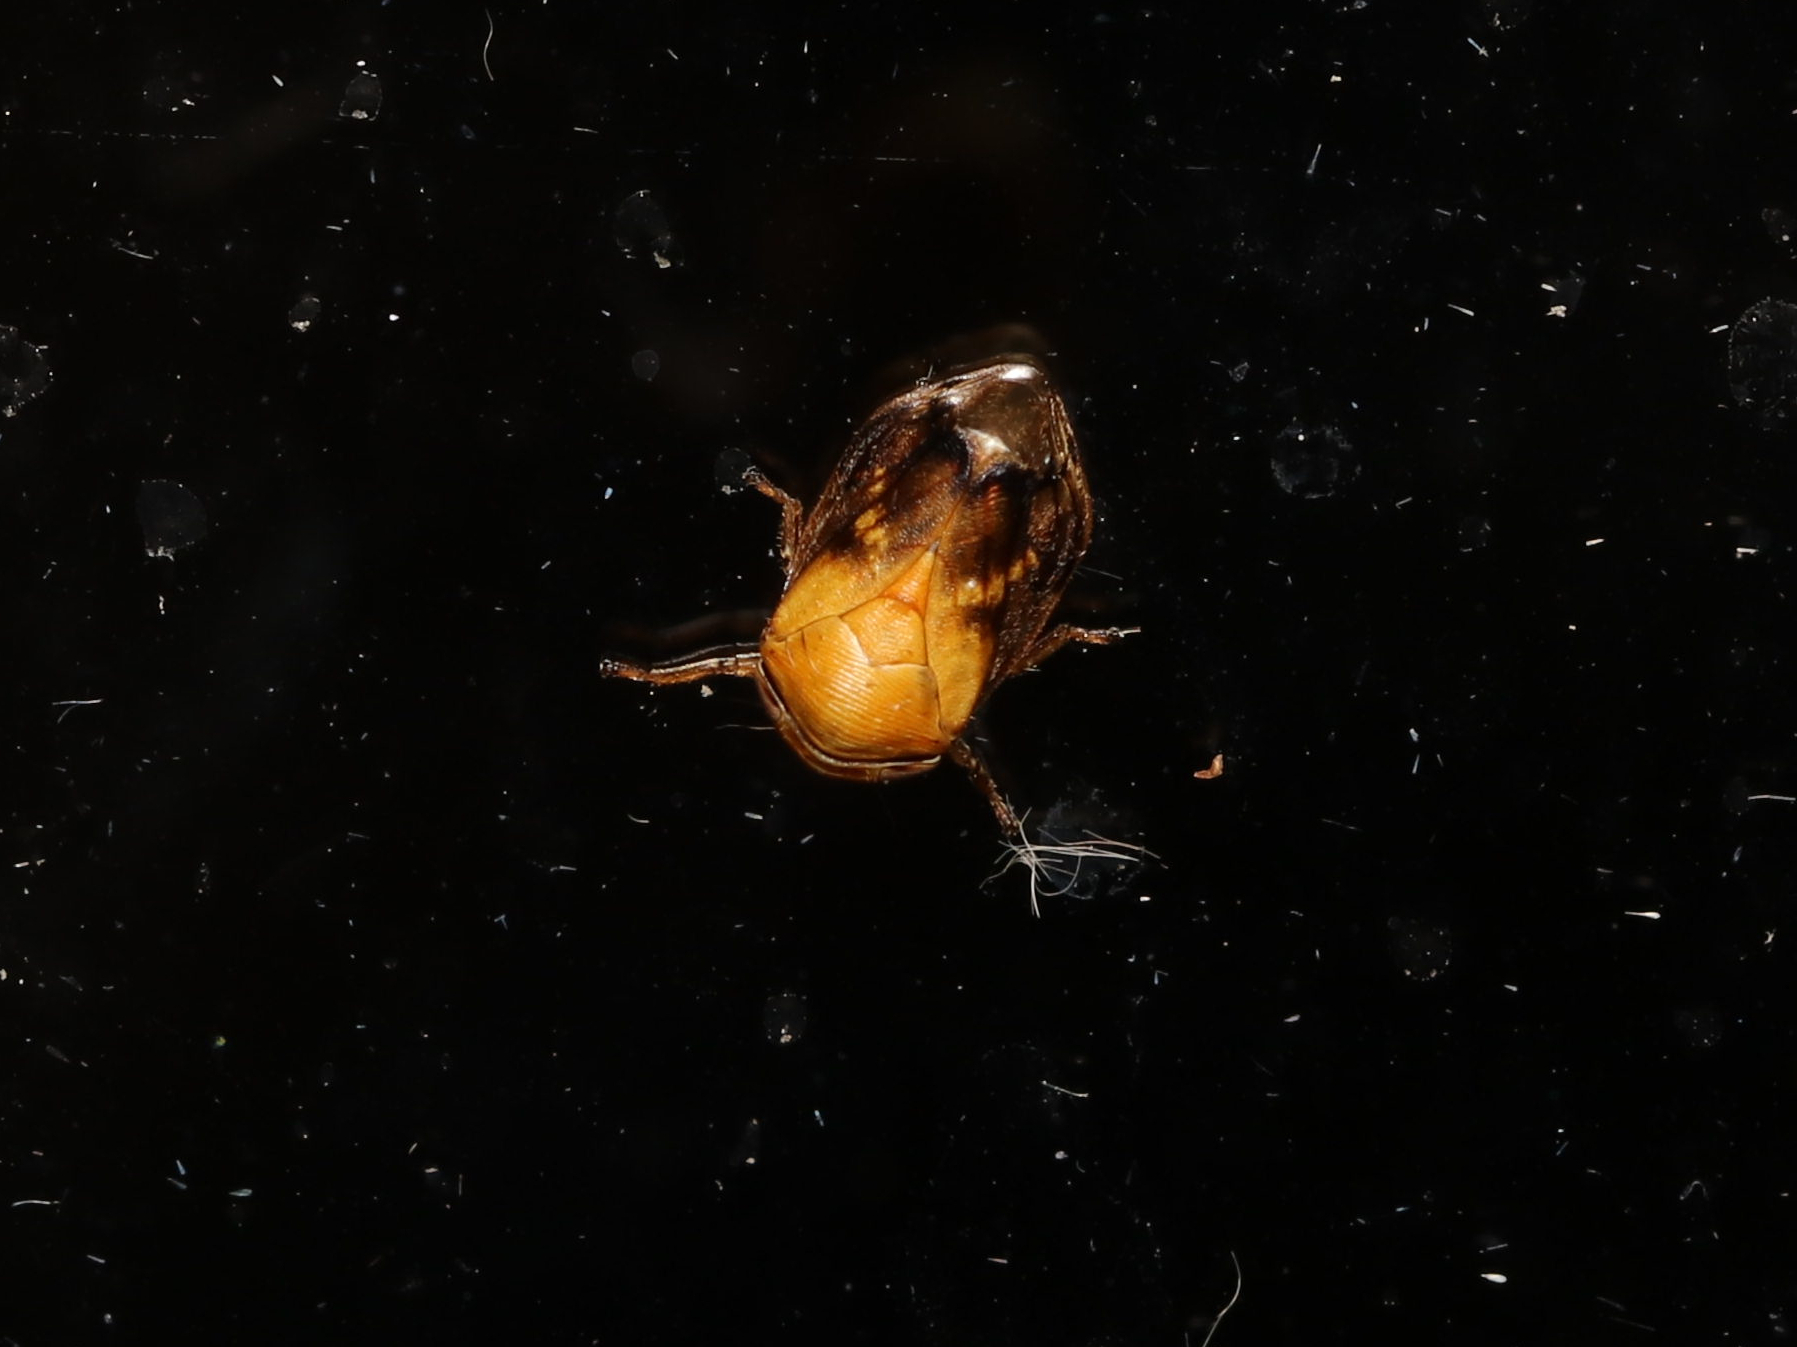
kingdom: Animalia
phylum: Arthropoda
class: Insecta
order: Hemiptera
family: Clastopteridae
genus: Clastoptera
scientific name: Clastoptera achatina
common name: Pecan spittlebug
